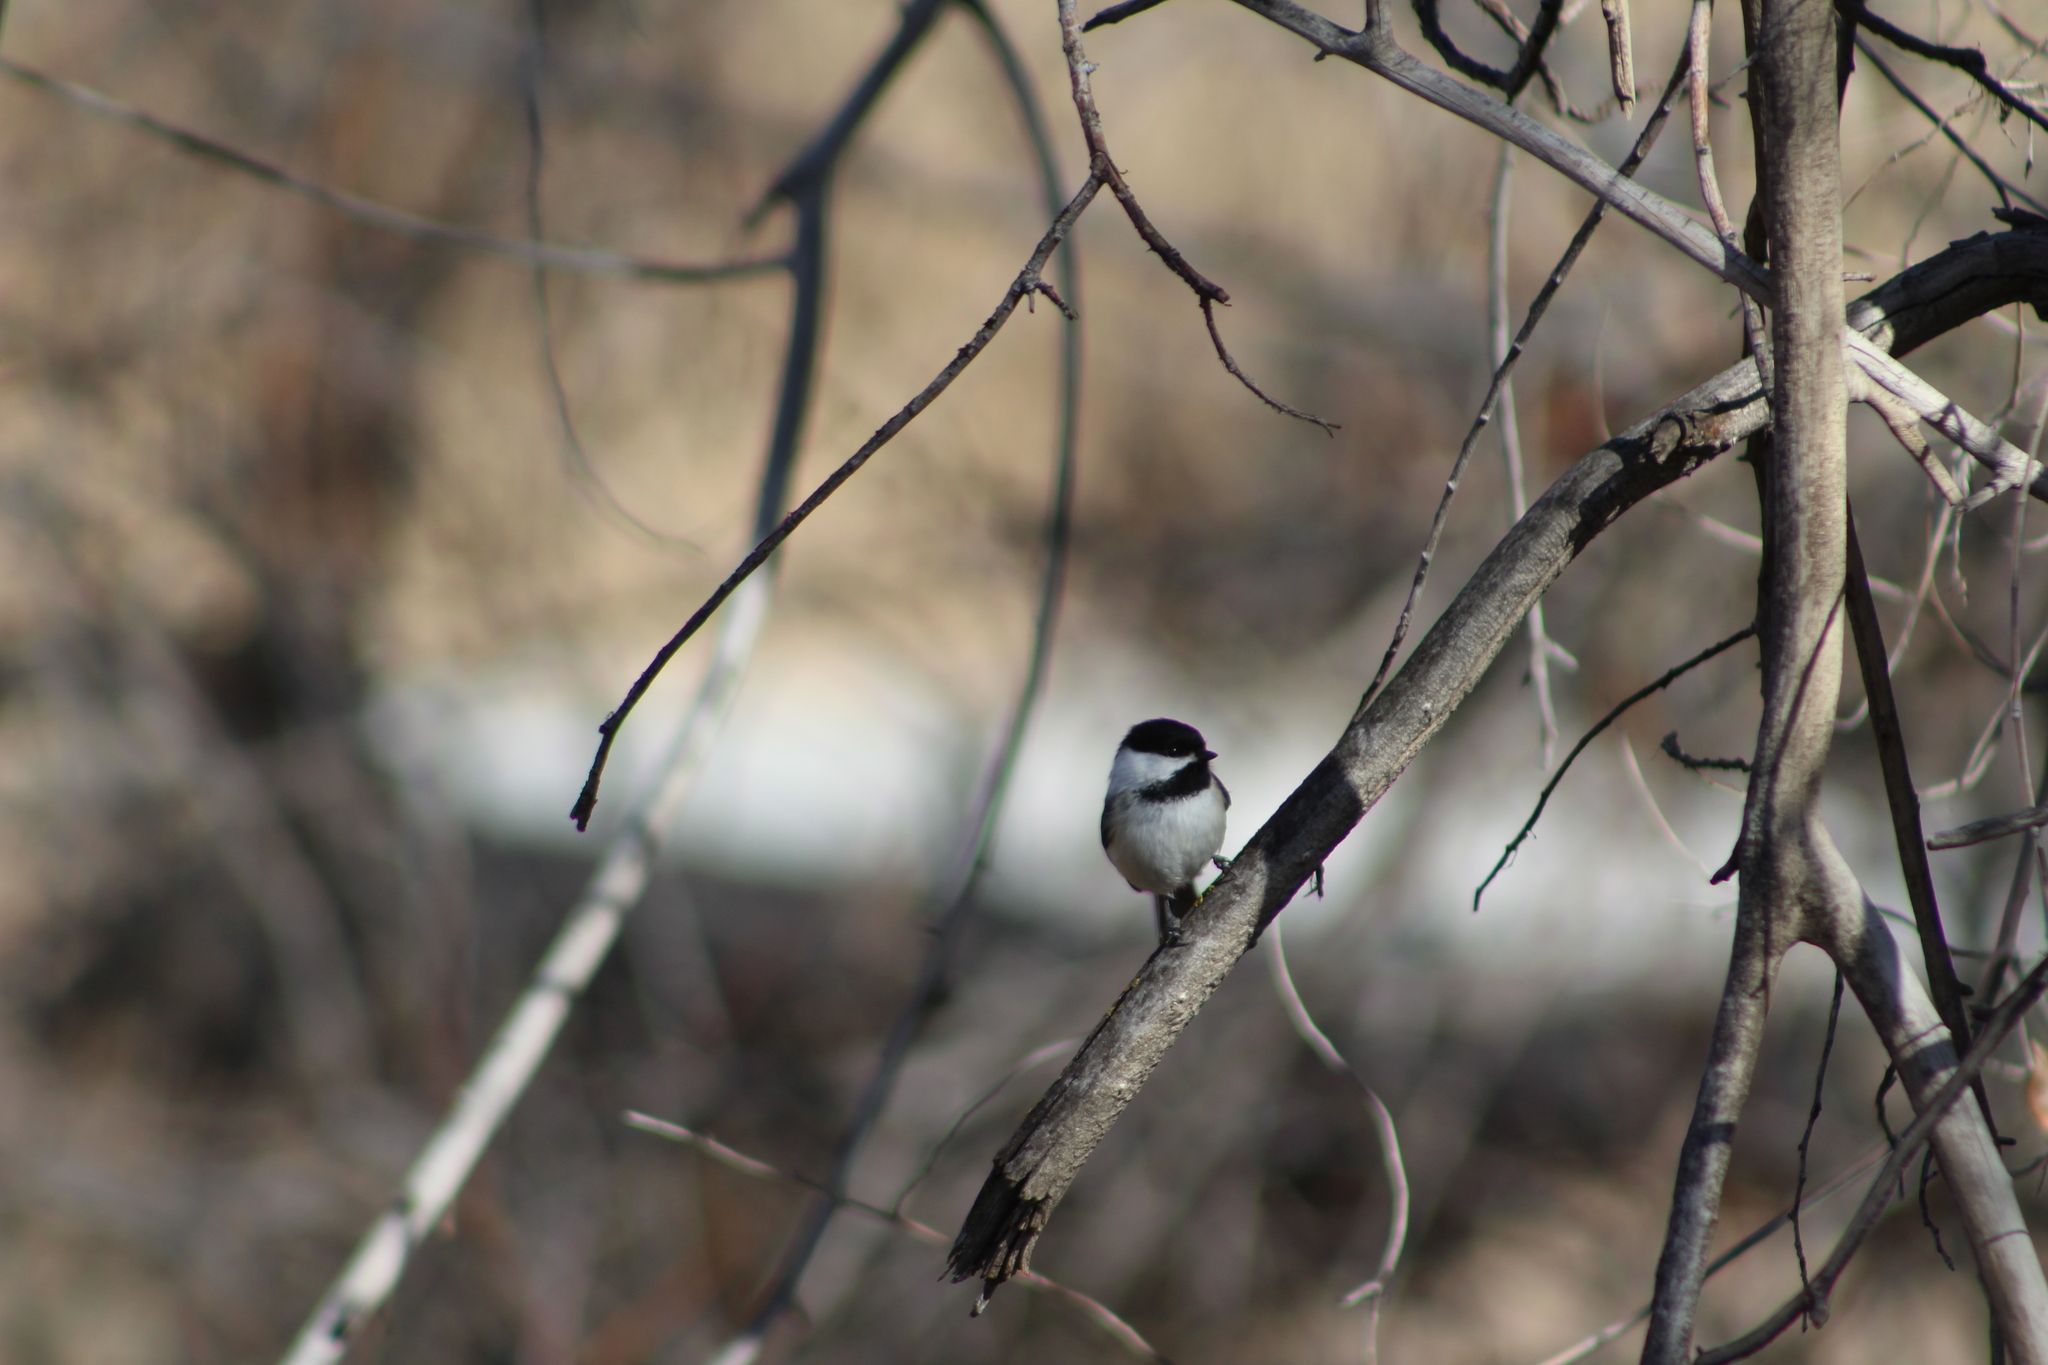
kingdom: Animalia
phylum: Chordata
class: Aves
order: Passeriformes
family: Paridae
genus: Poecile
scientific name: Poecile atricapillus
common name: Black-capped chickadee
